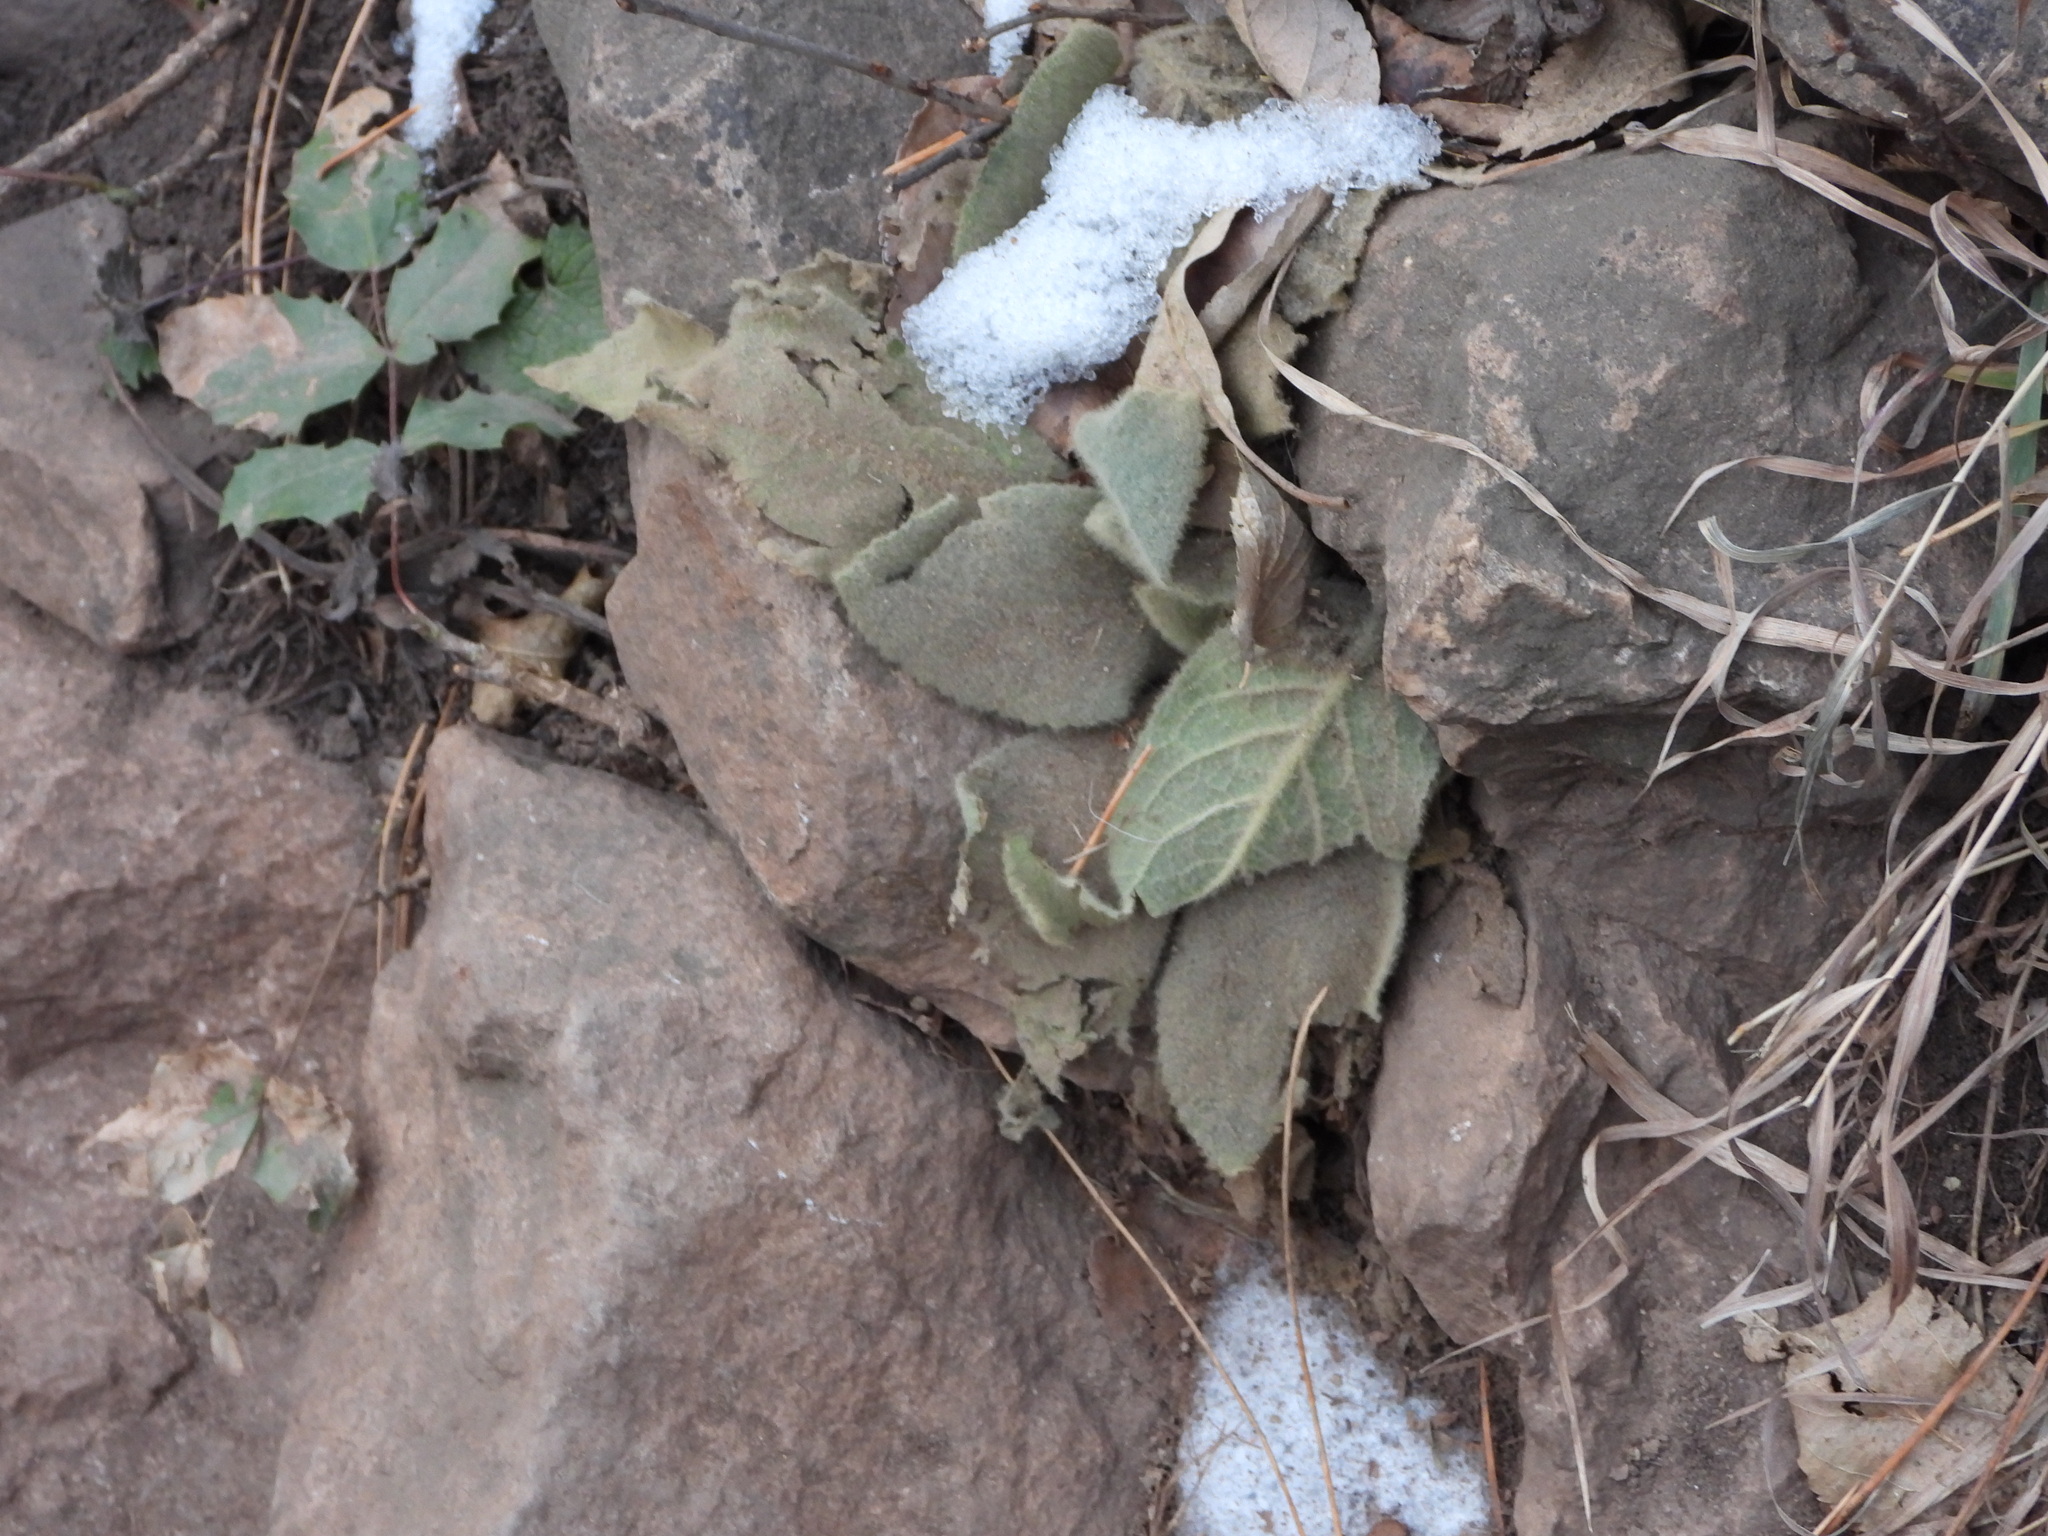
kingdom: Plantae
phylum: Tracheophyta
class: Magnoliopsida
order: Lamiales
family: Scrophulariaceae
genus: Verbascum
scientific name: Verbascum thapsus
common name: Common mullein
